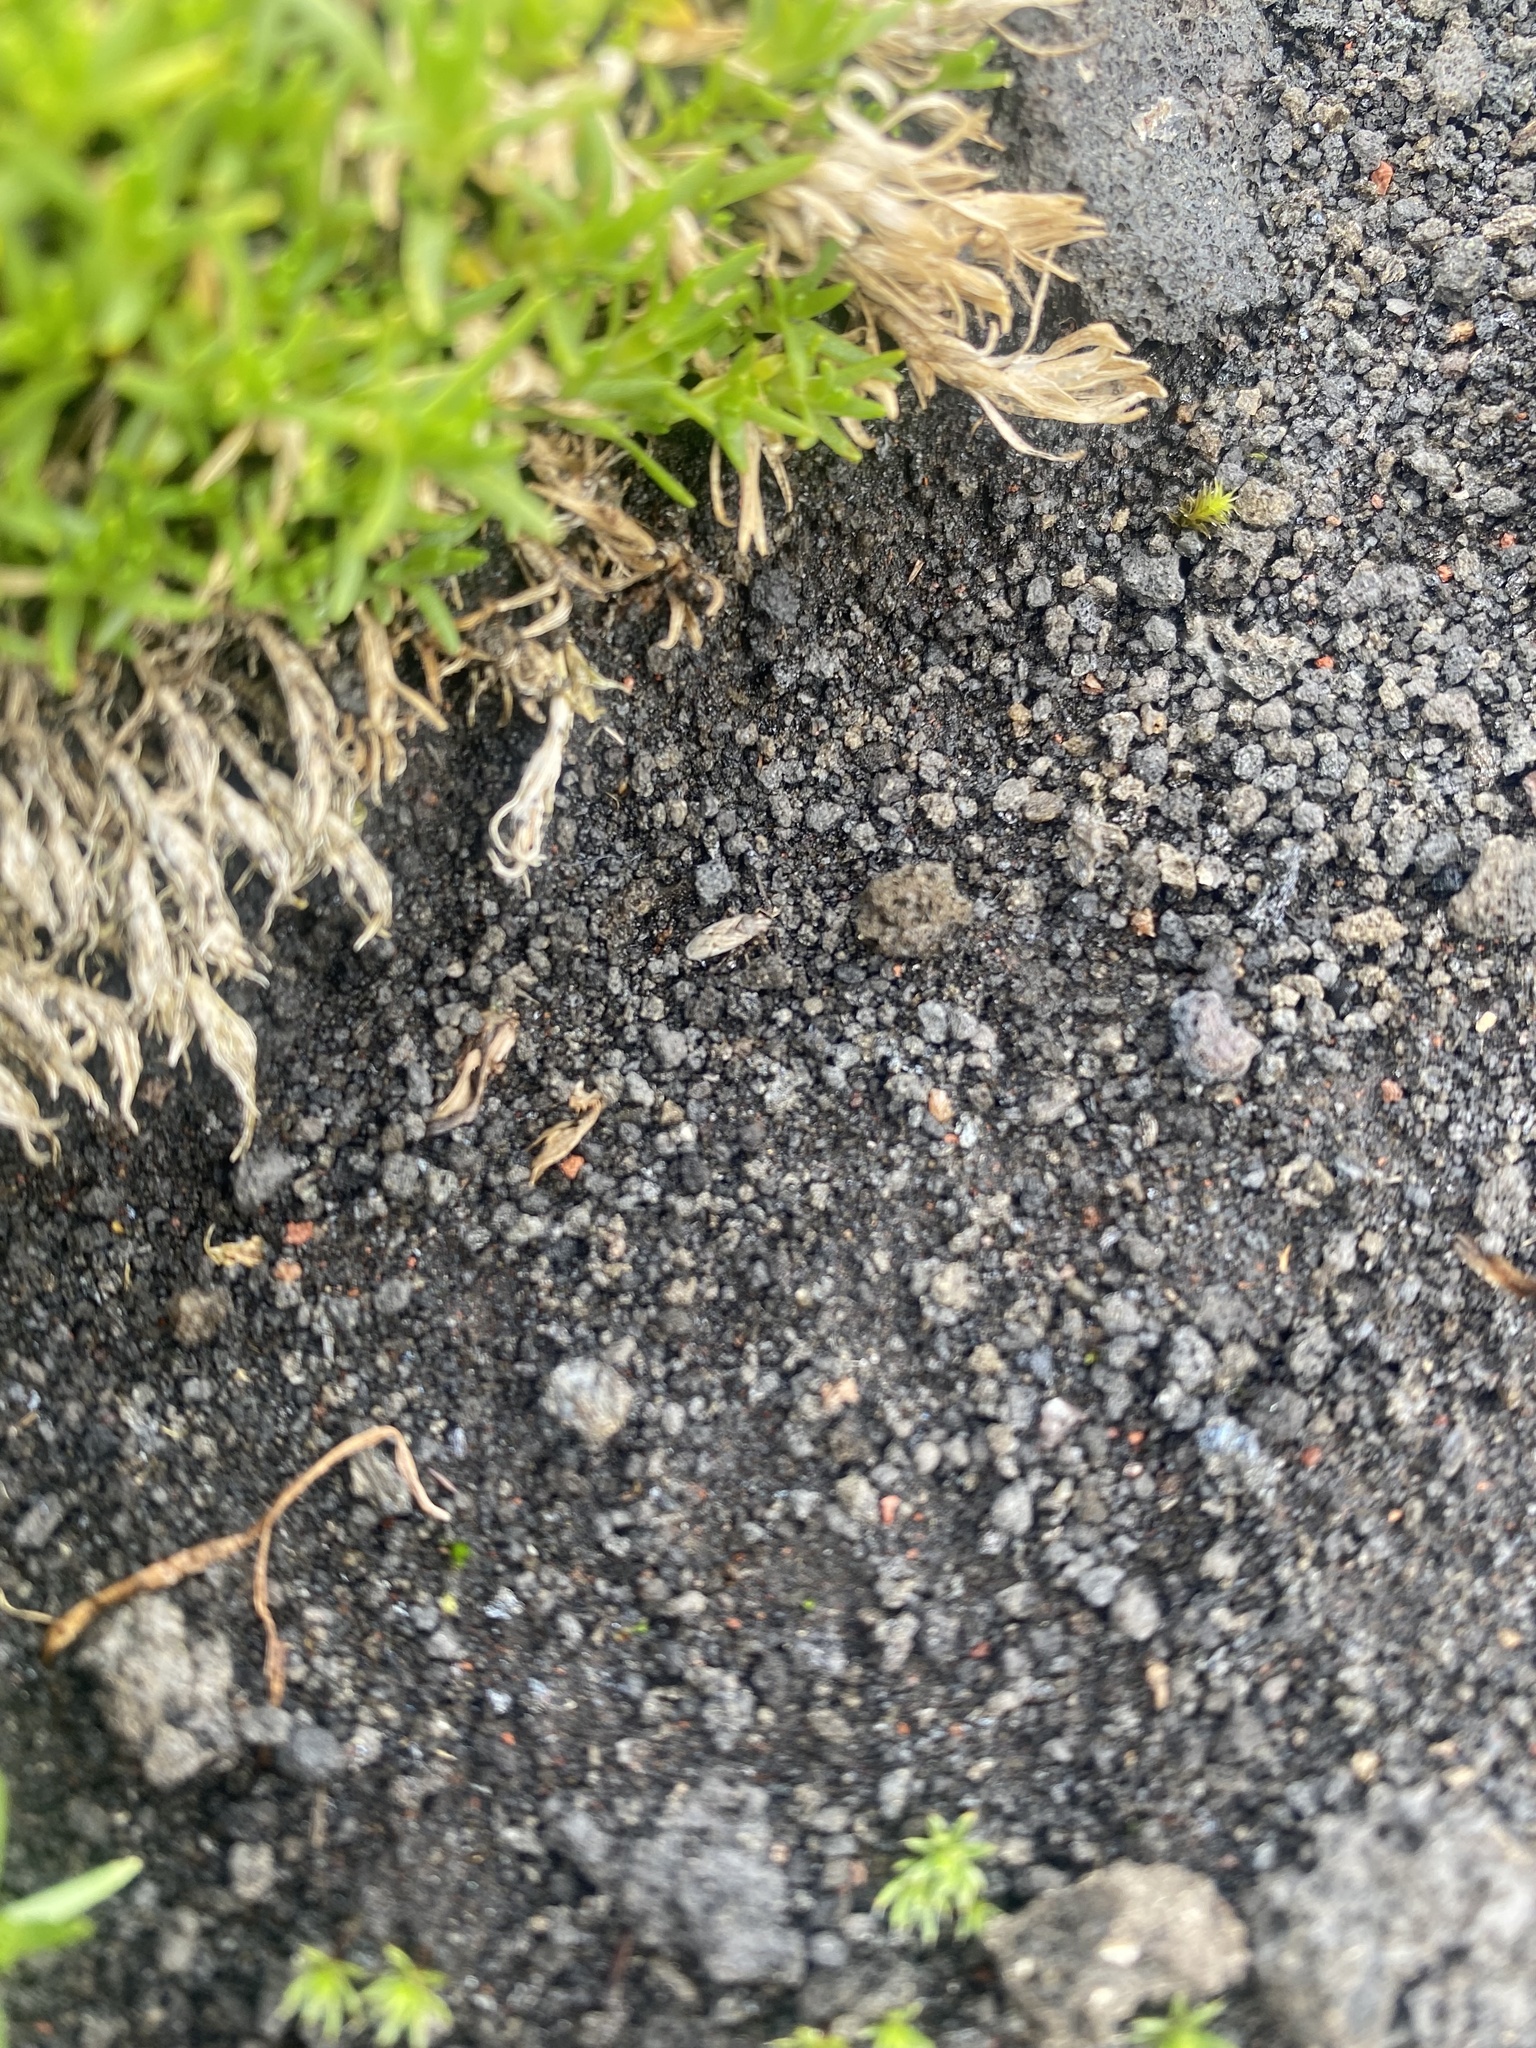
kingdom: Plantae
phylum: Tracheophyta
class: Magnoliopsida
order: Caryophyllales
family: Caryophyllaceae
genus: Cherleria
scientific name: Cherleria arctica
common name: Arctic sandwort
